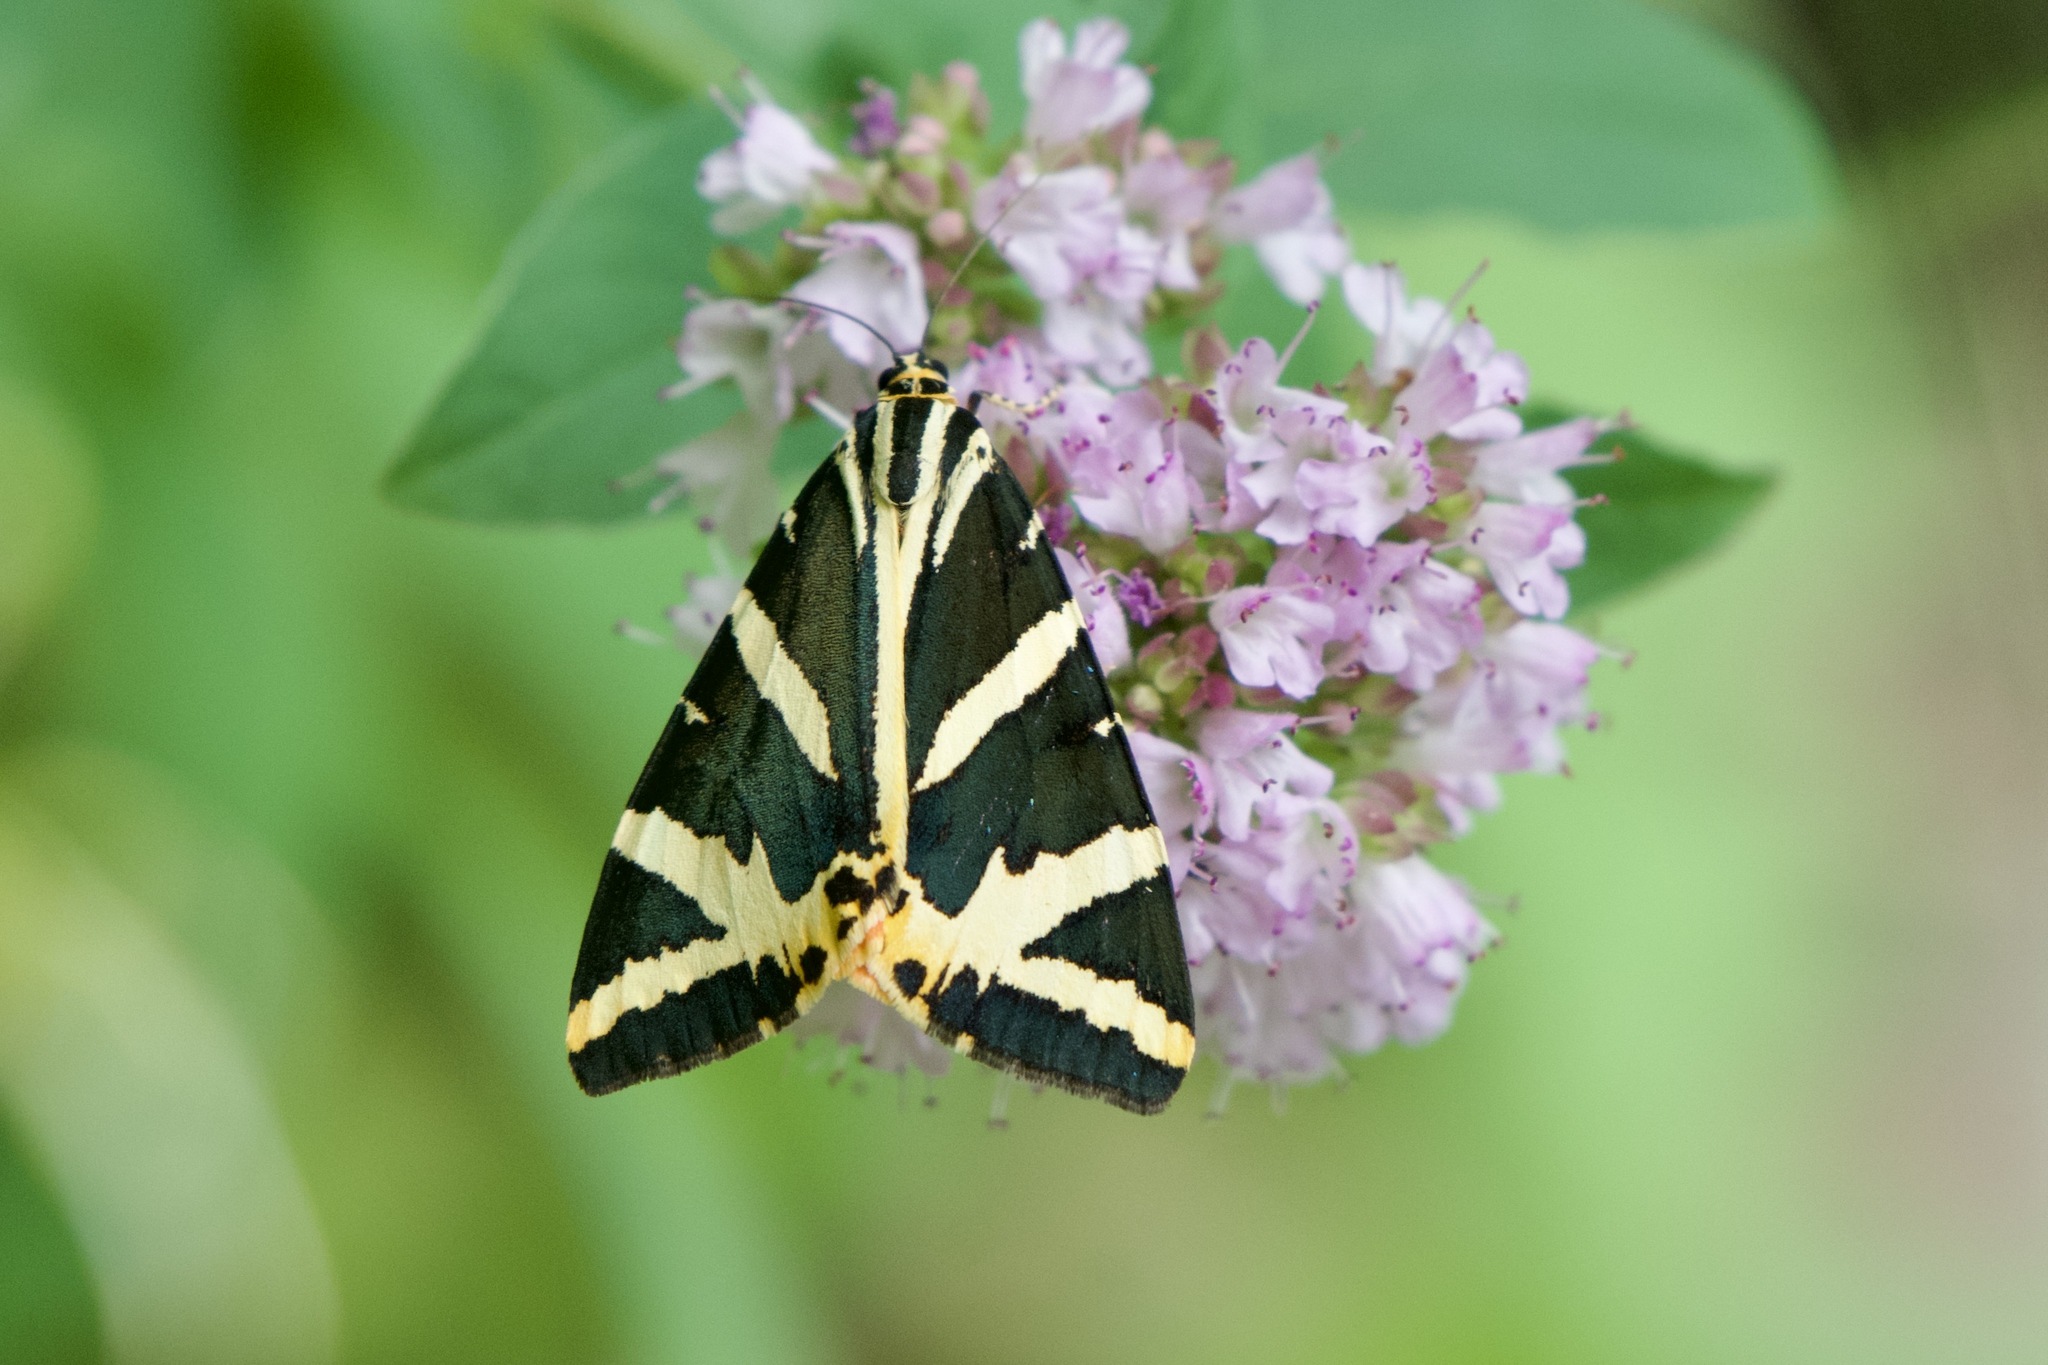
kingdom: Animalia
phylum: Arthropoda
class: Insecta
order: Lepidoptera
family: Erebidae
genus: Euplagia
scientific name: Euplagia quadripunctaria
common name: Jersey tiger
